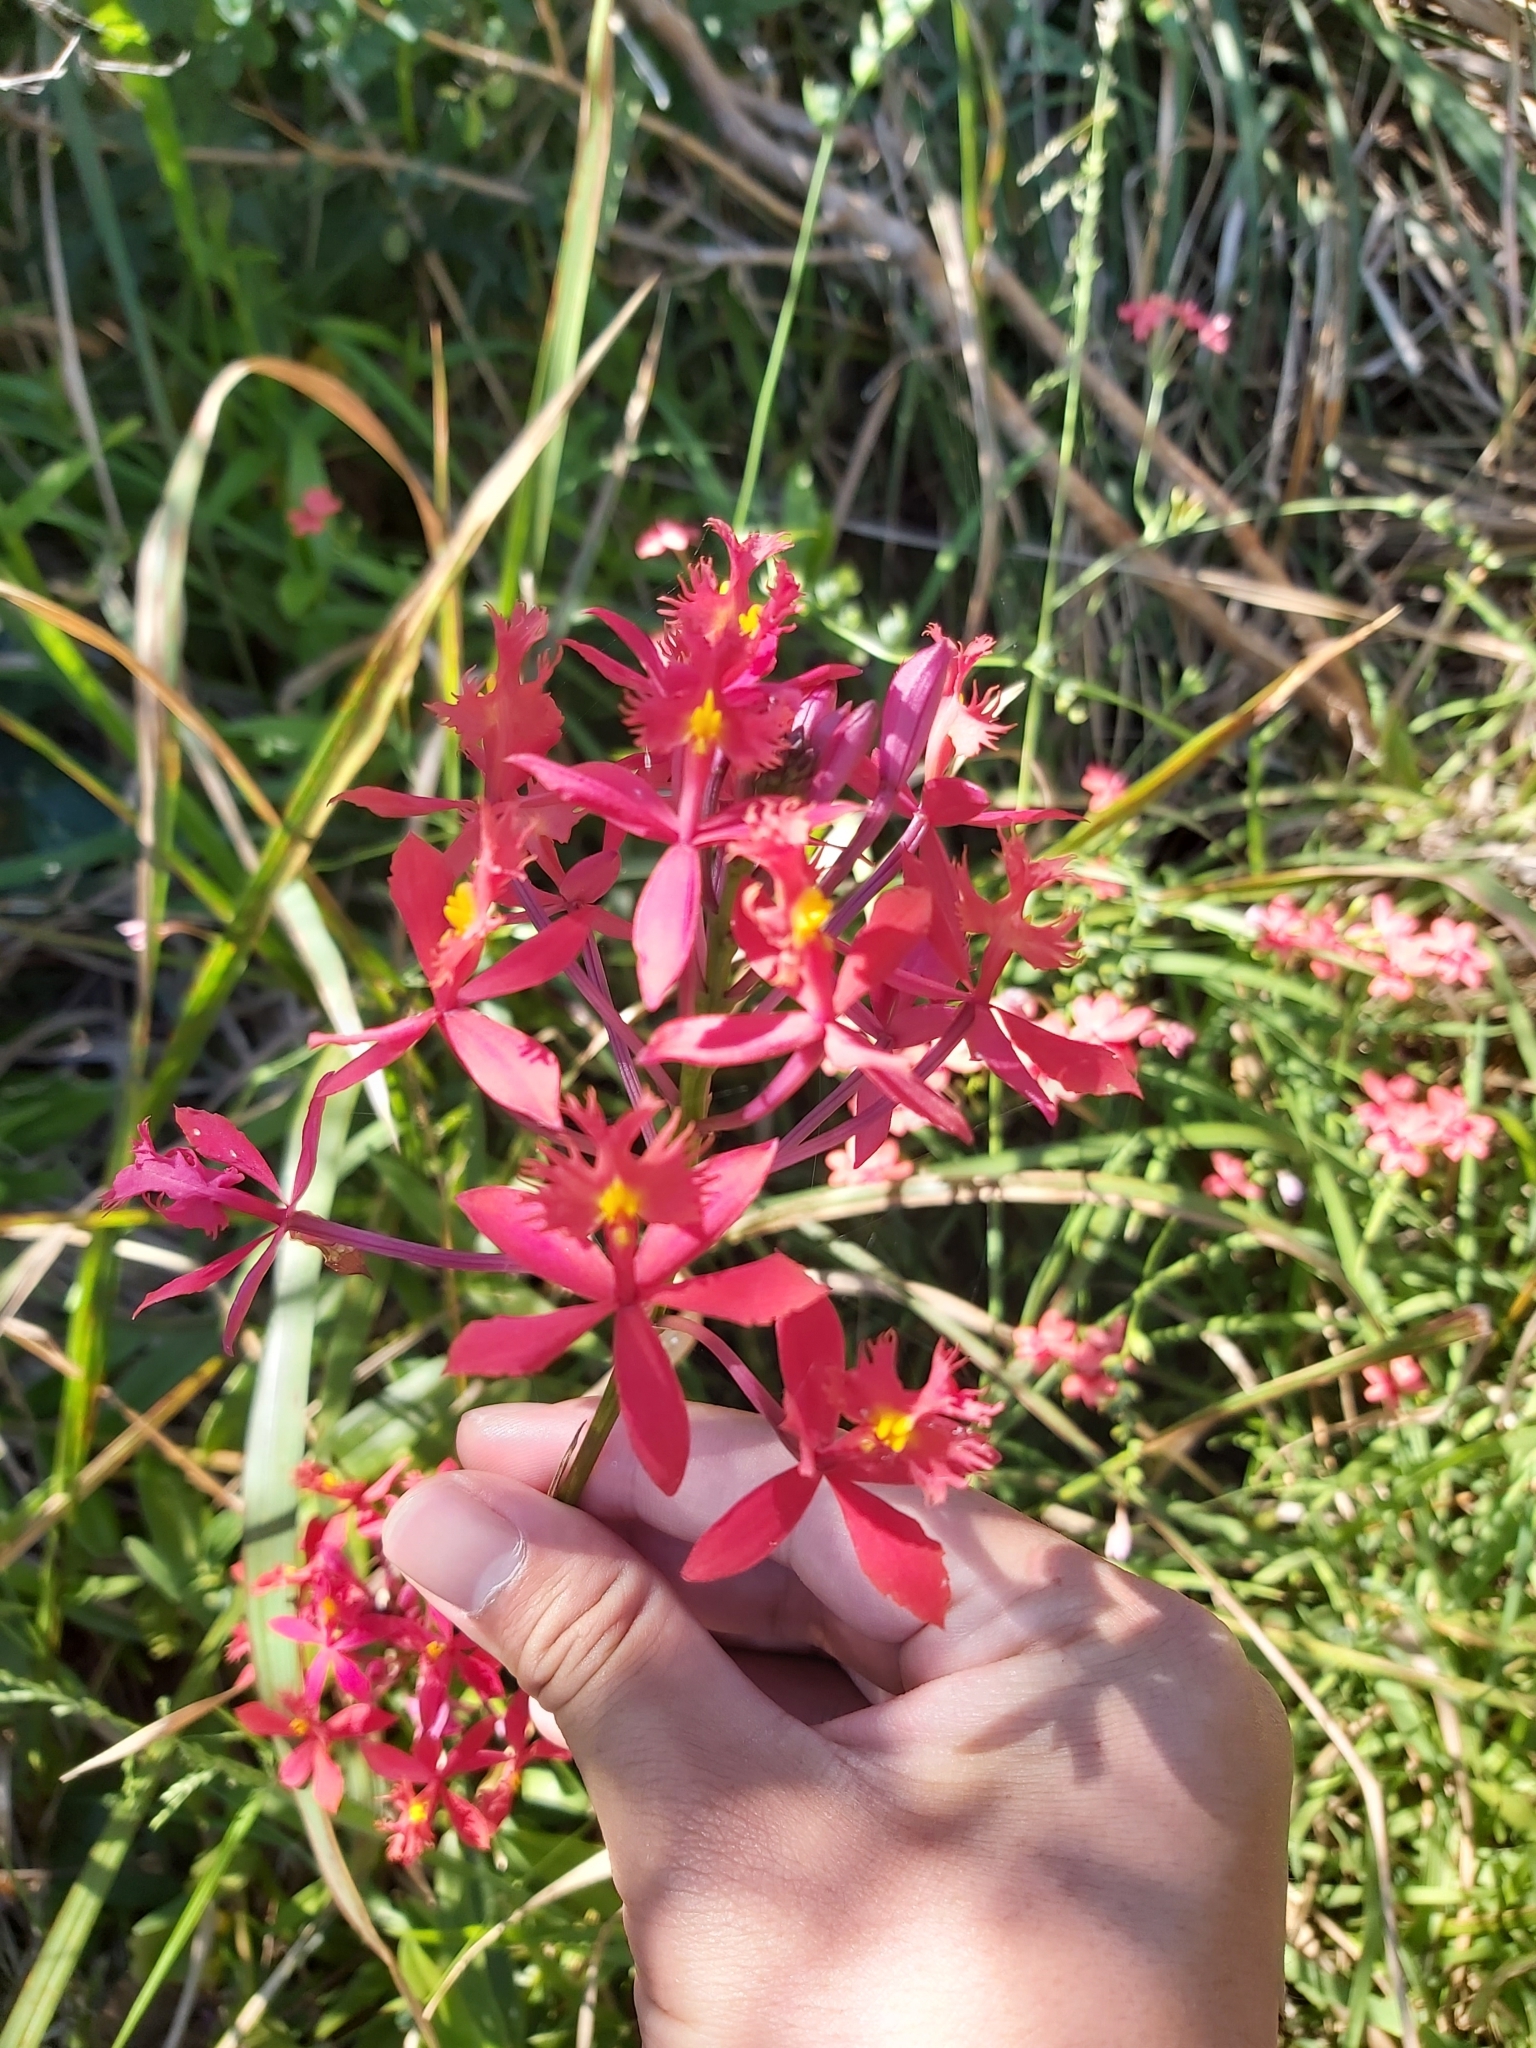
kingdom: Plantae
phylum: Tracheophyta
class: Liliopsida
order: Asparagales
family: Orchidaceae
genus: Epidendrum
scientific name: Epidendrum radicans
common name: Fire star orchid
